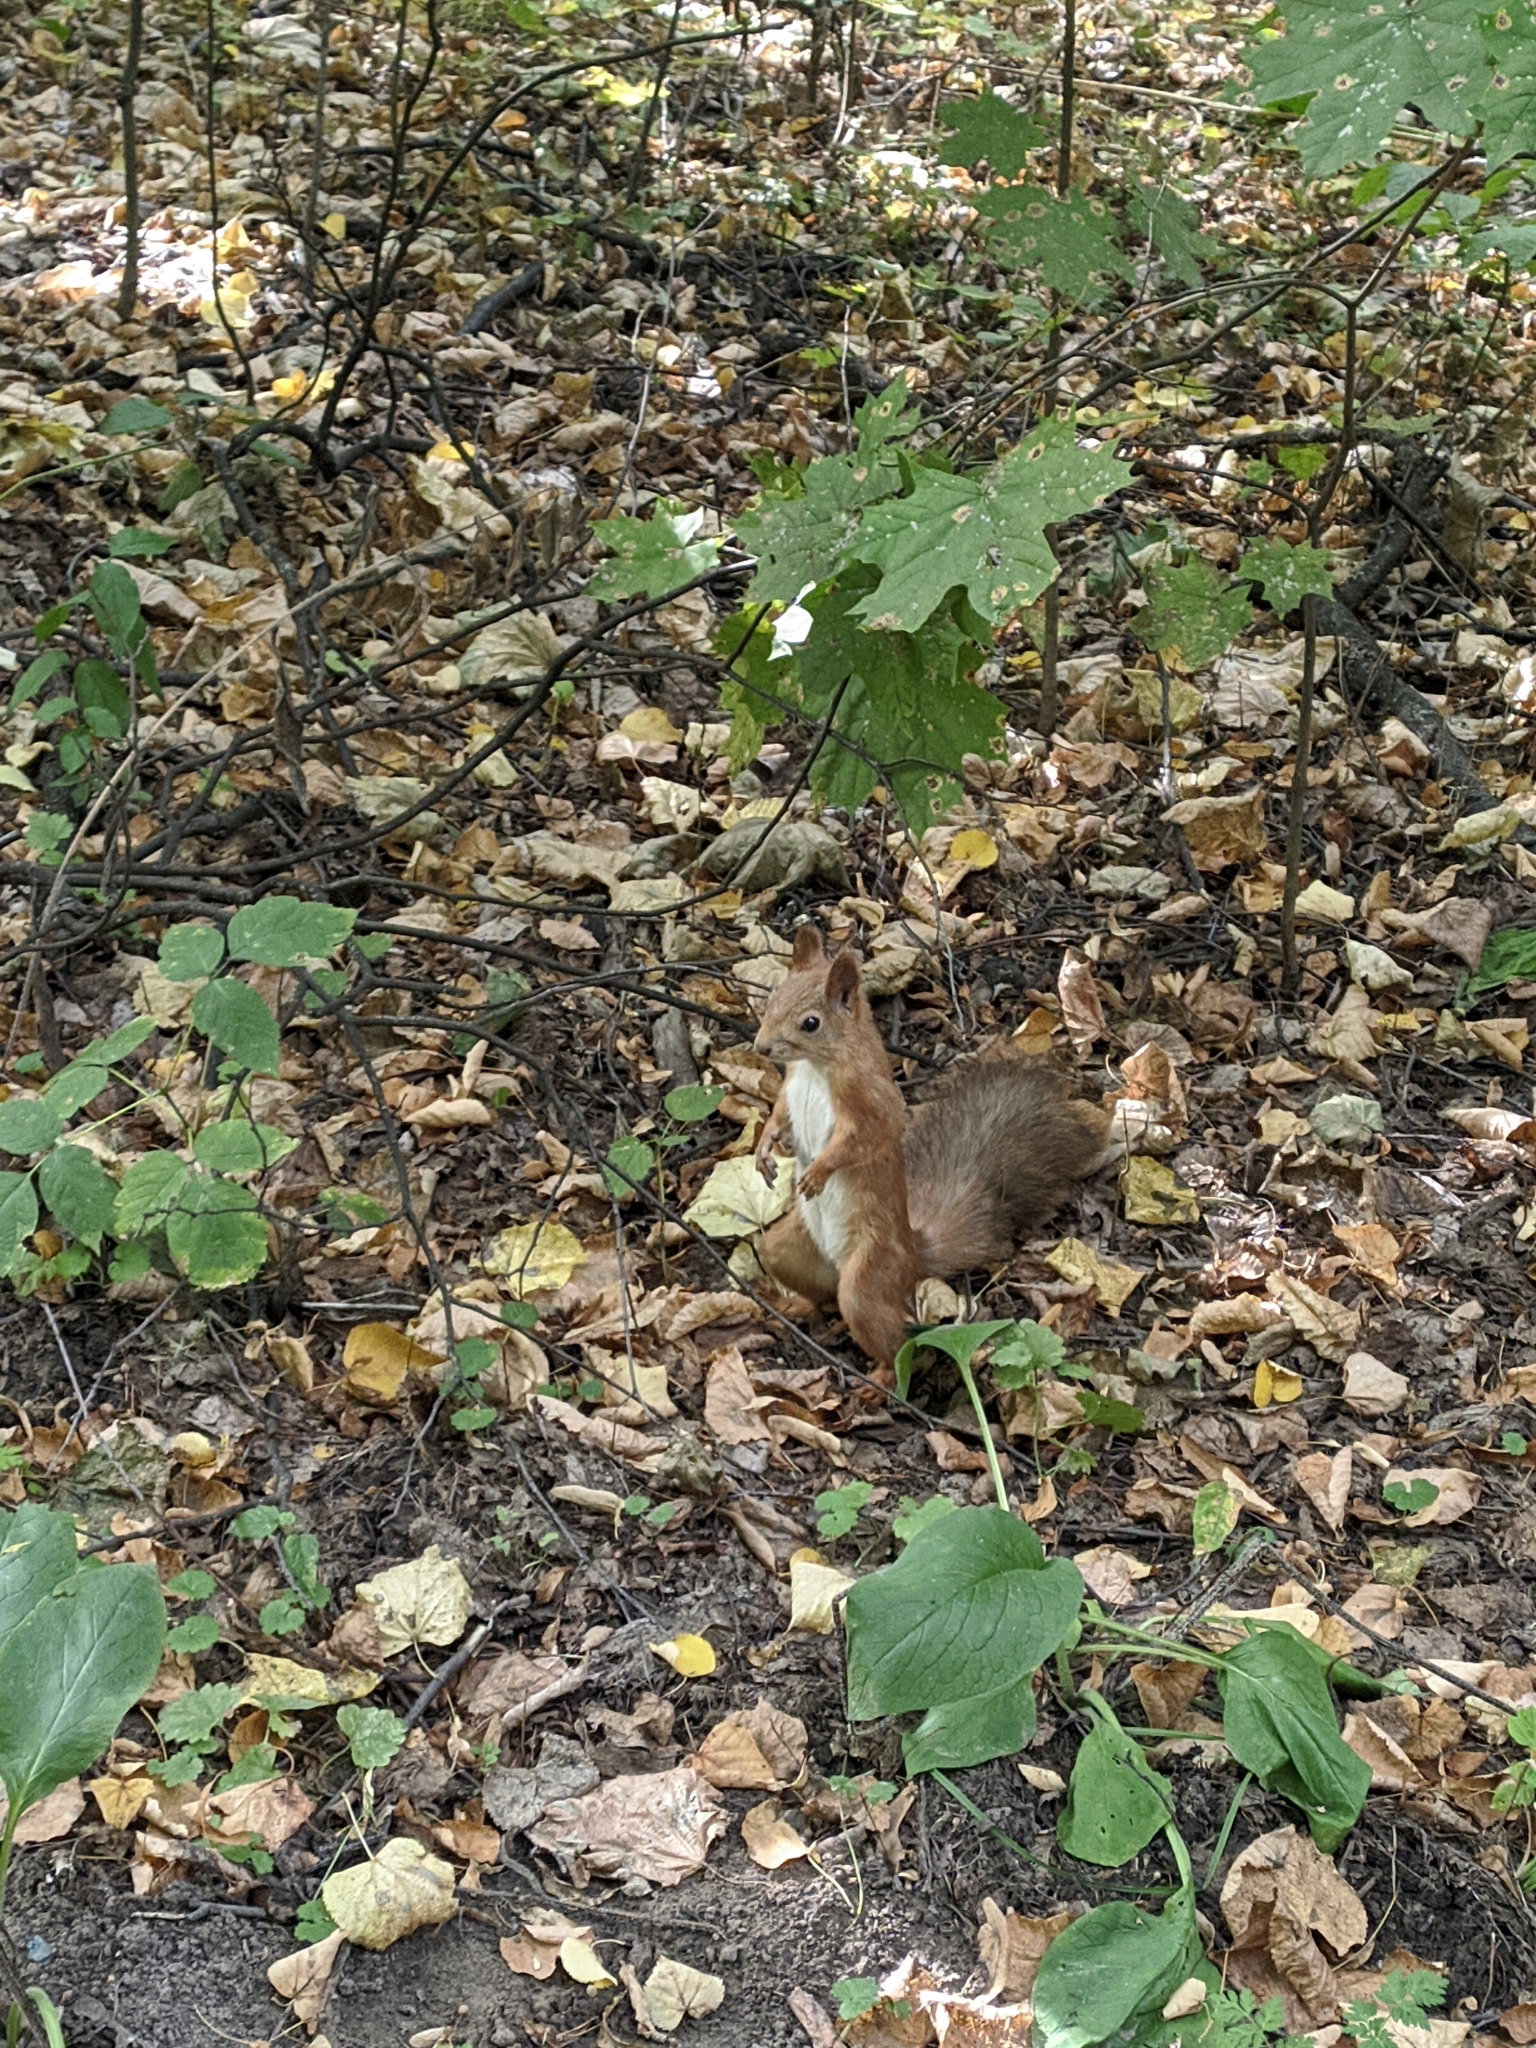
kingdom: Animalia
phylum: Chordata
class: Mammalia
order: Rodentia
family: Sciuridae
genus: Sciurus
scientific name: Sciurus vulgaris
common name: Eurasian red squirrel
